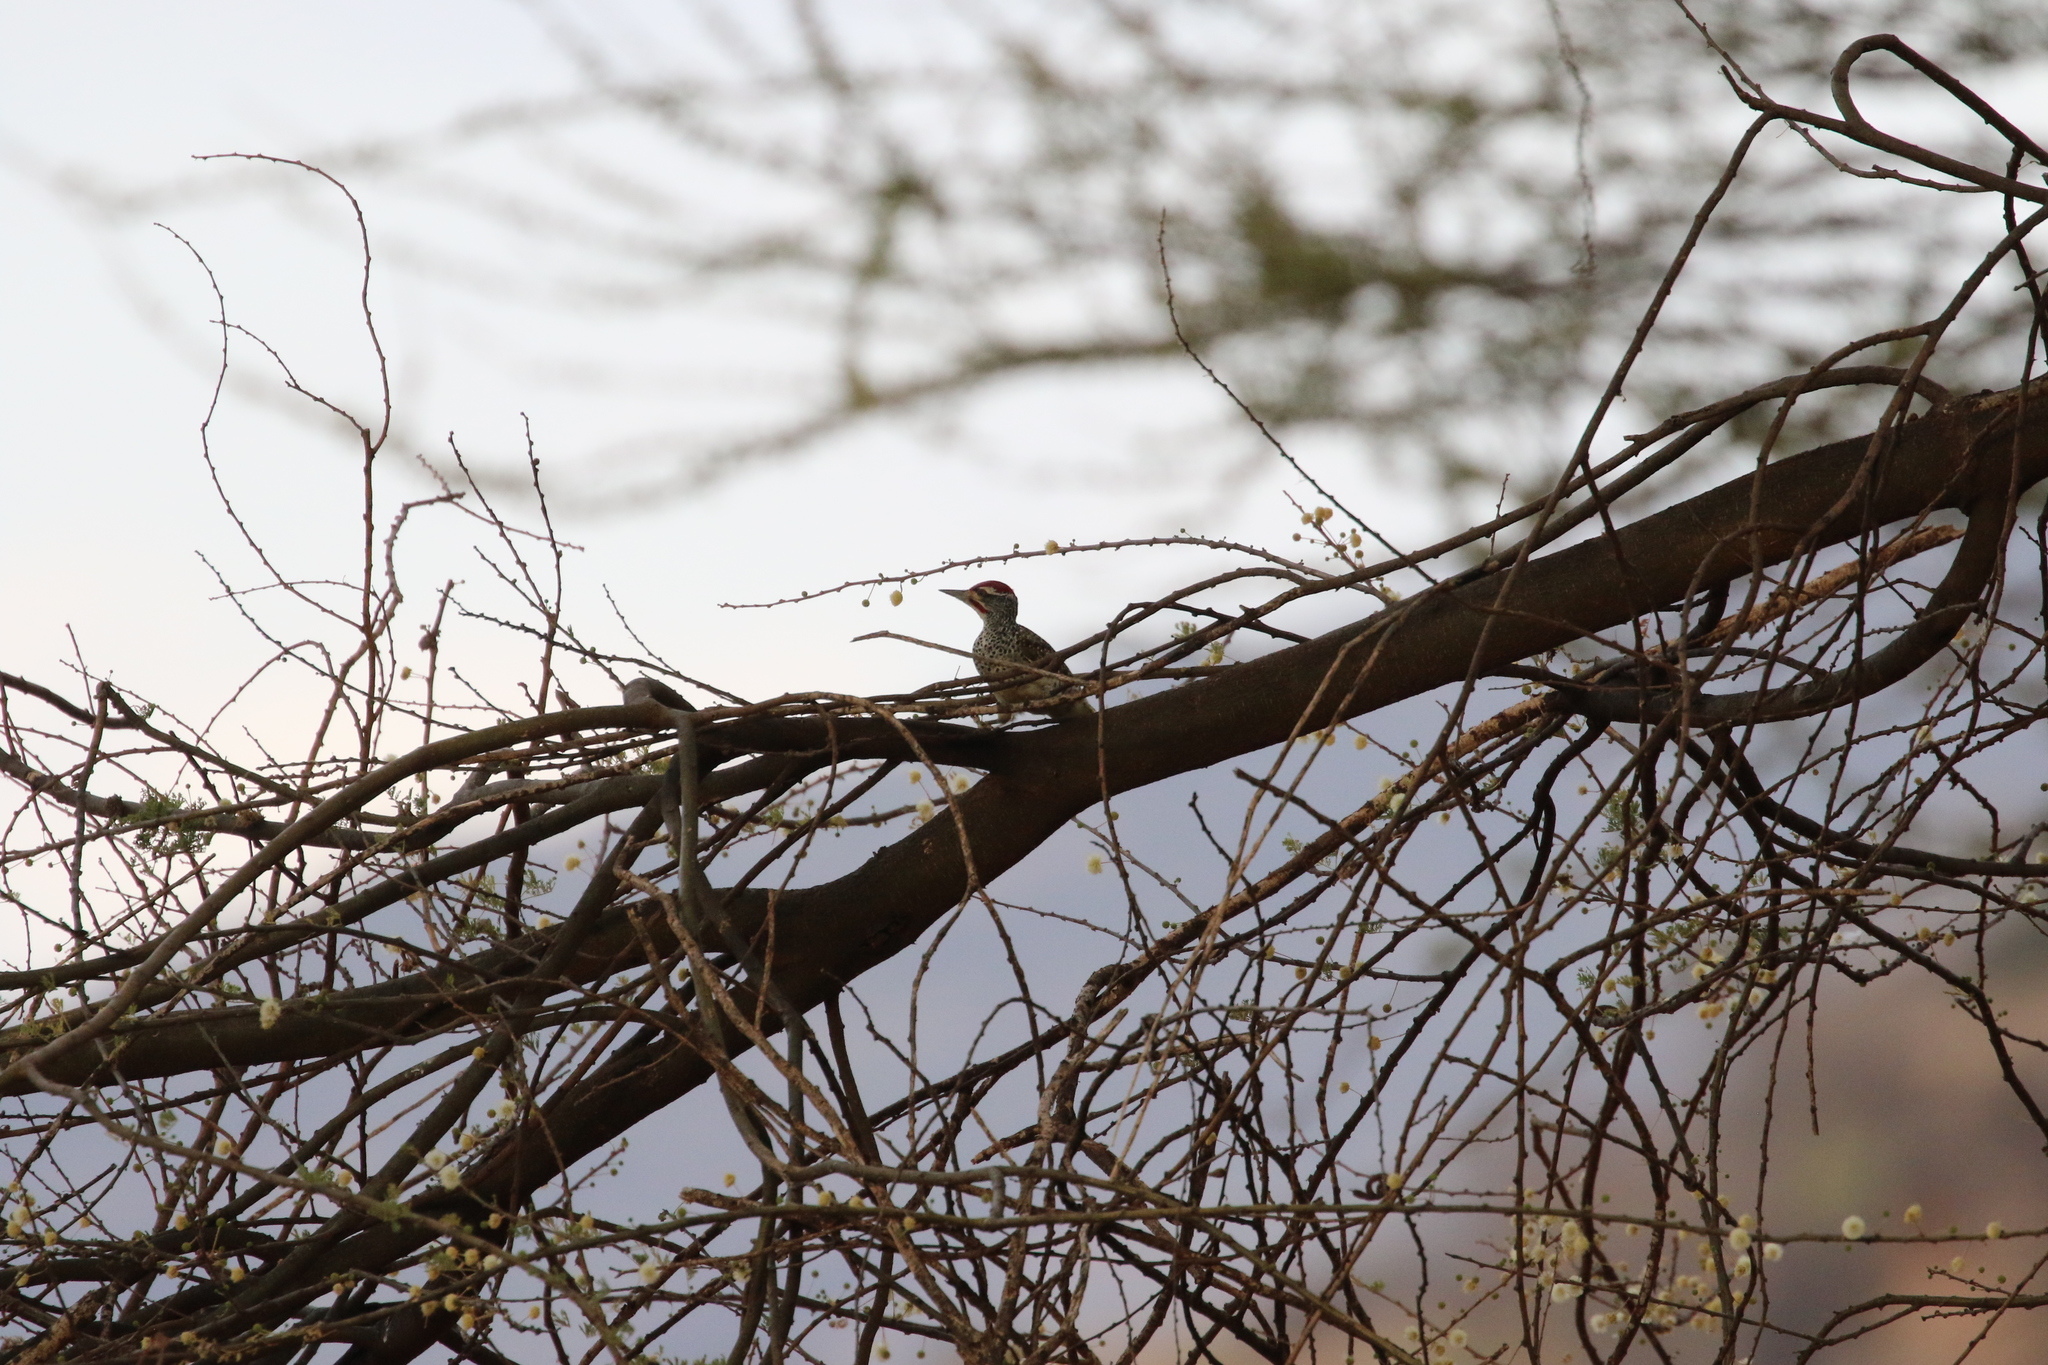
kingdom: Animalia
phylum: Chordata
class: Aves
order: Piciformes
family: Picidae
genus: Campethera
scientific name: Campethera nubica
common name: Nubian woodpecker
